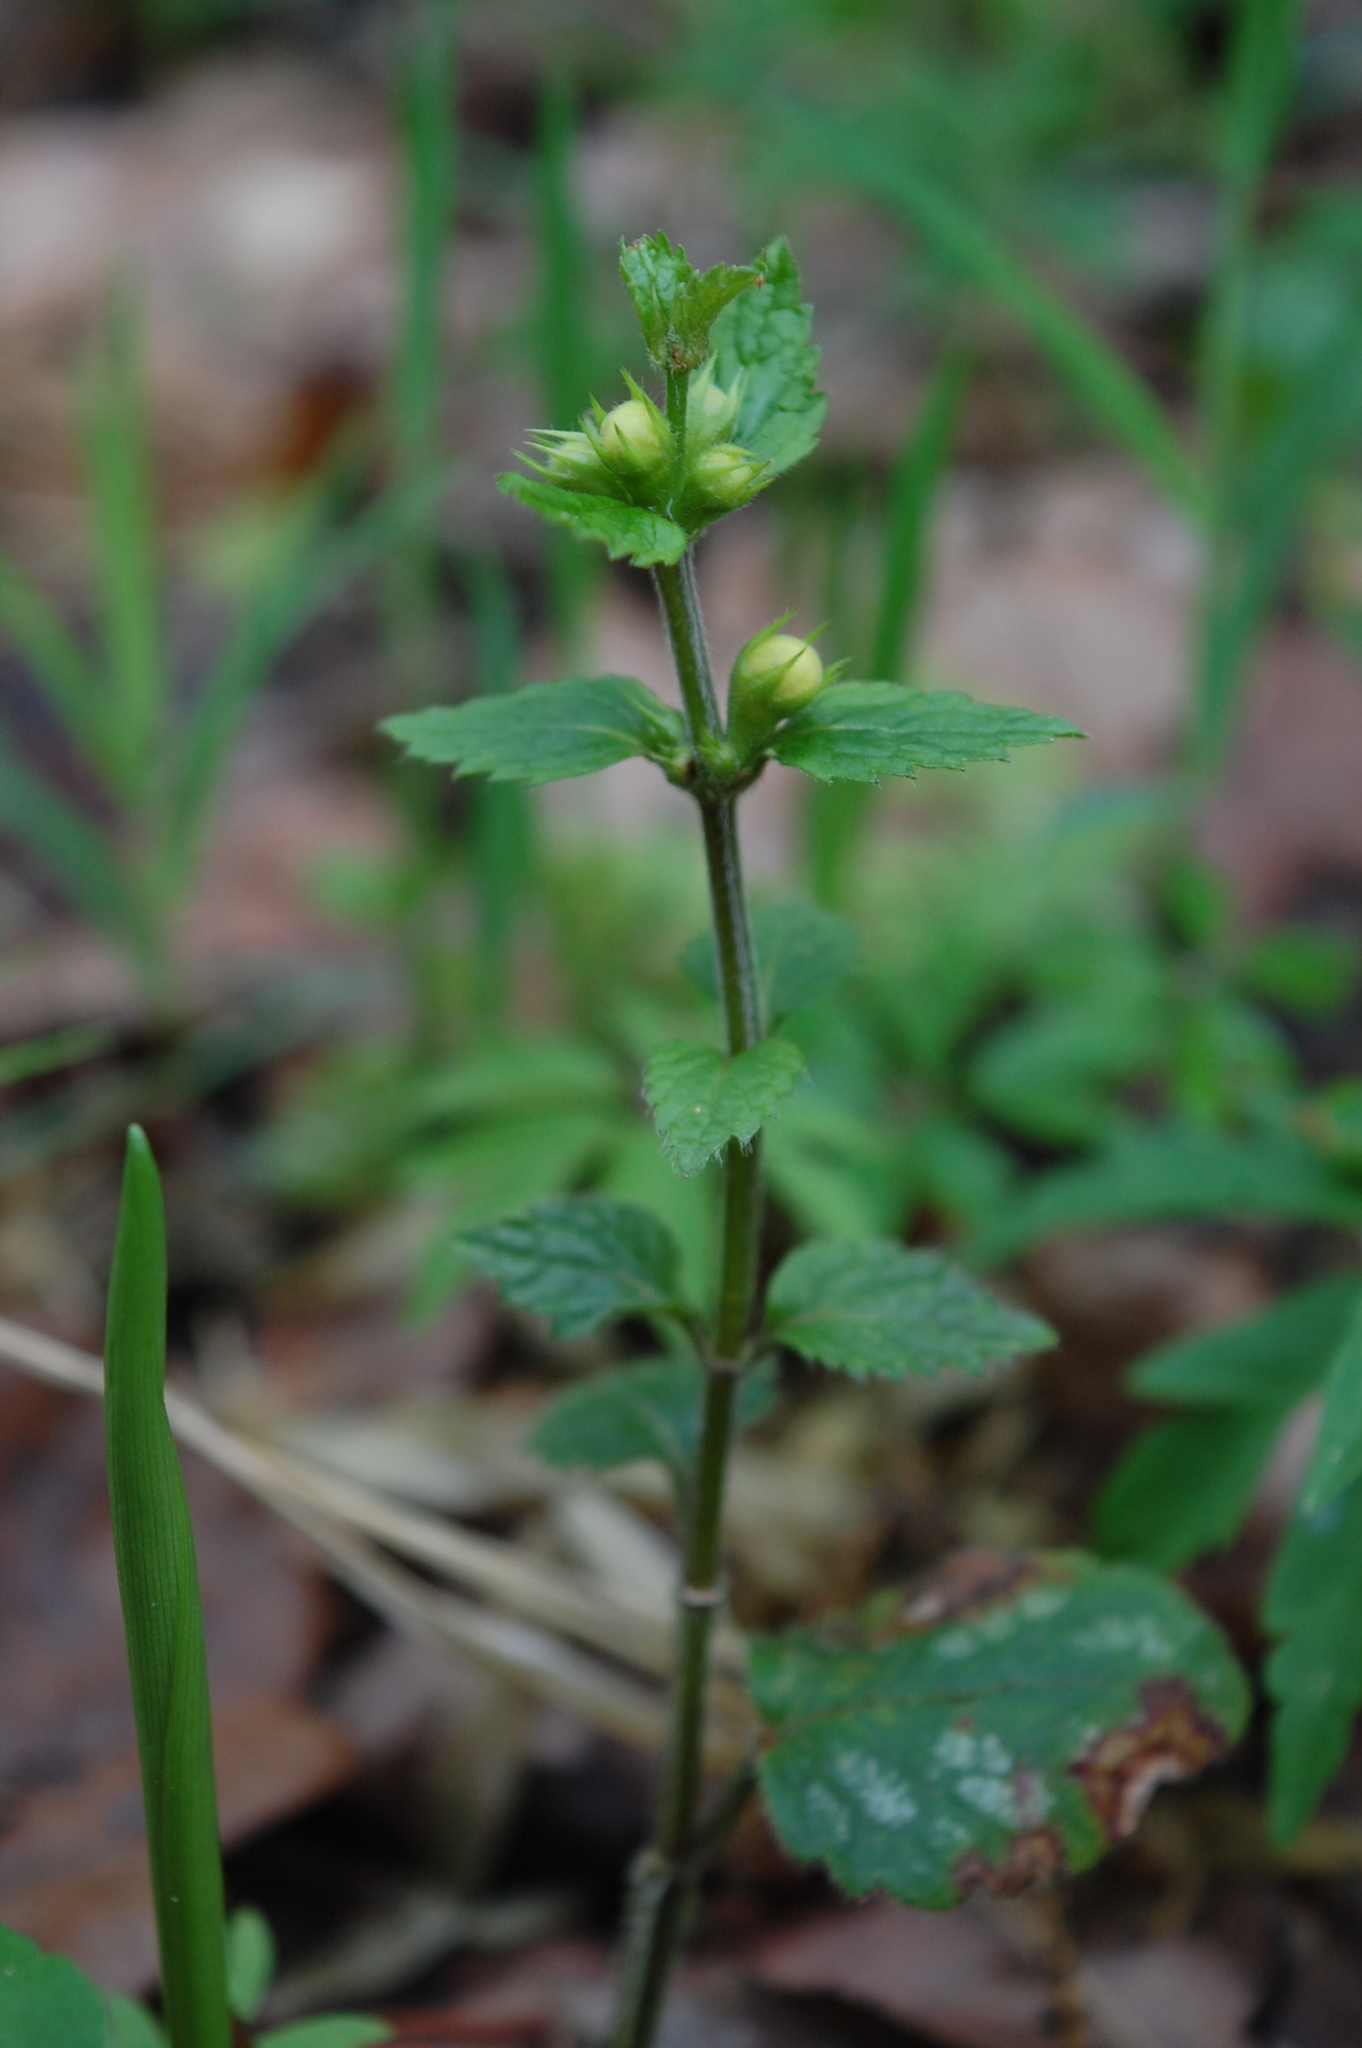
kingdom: Plantae
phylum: Tracheophyta
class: Magnoliopsida
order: Lamiales
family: Lamiaceae
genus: Lamium
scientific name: Lamium galeobdolon
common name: Yellow archangel
